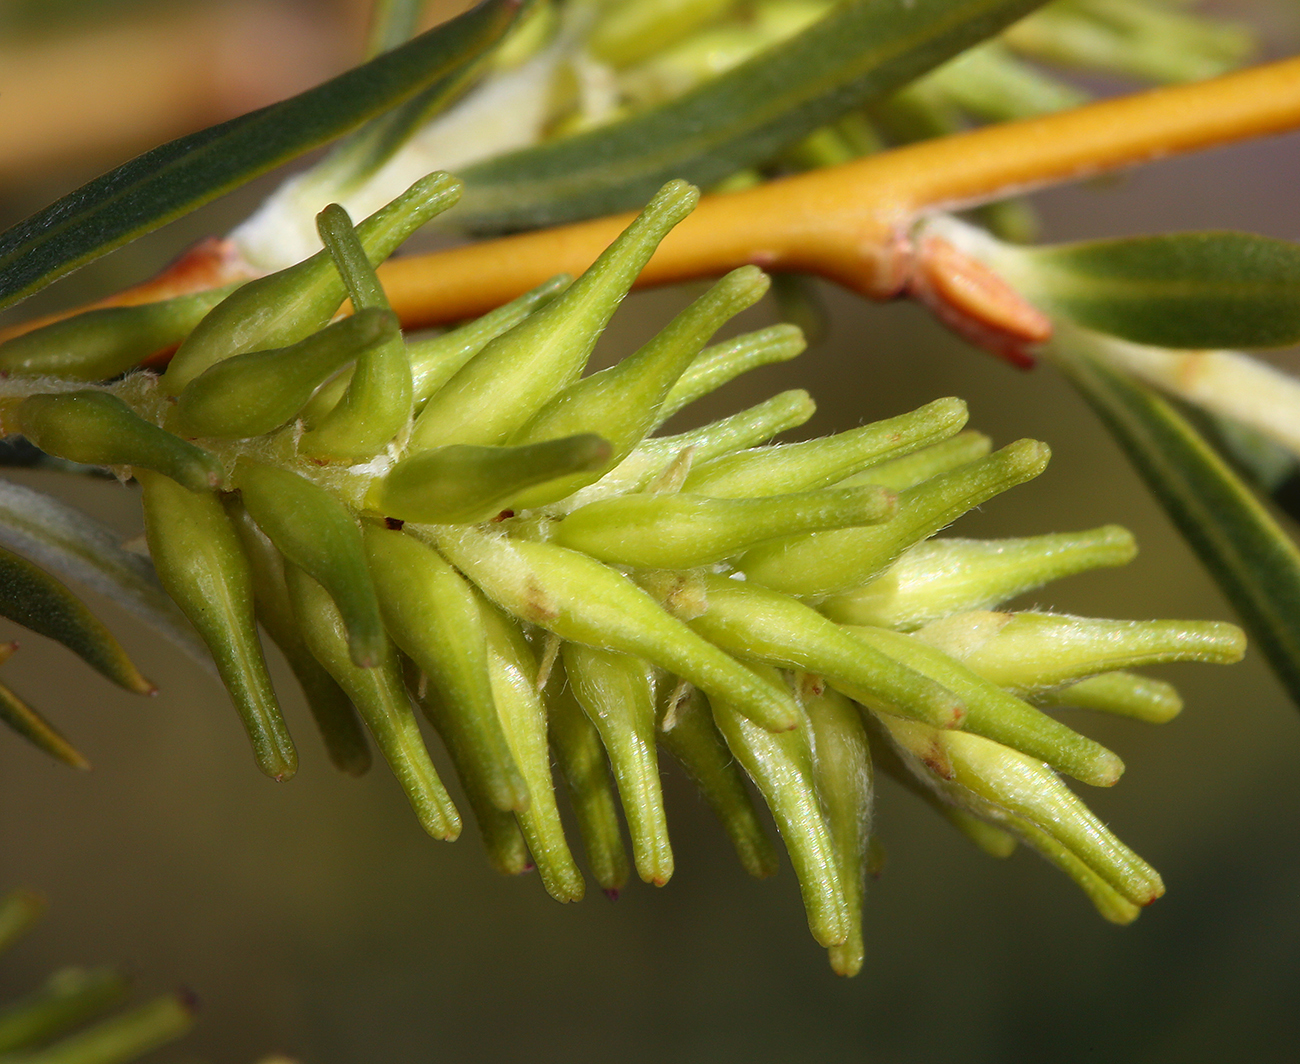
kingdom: Plantae
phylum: Tracheophyta
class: Magnoliopsida
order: Malpighiales
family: Salicaceae
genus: Salix
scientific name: Salix exigua
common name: Coyote willow
